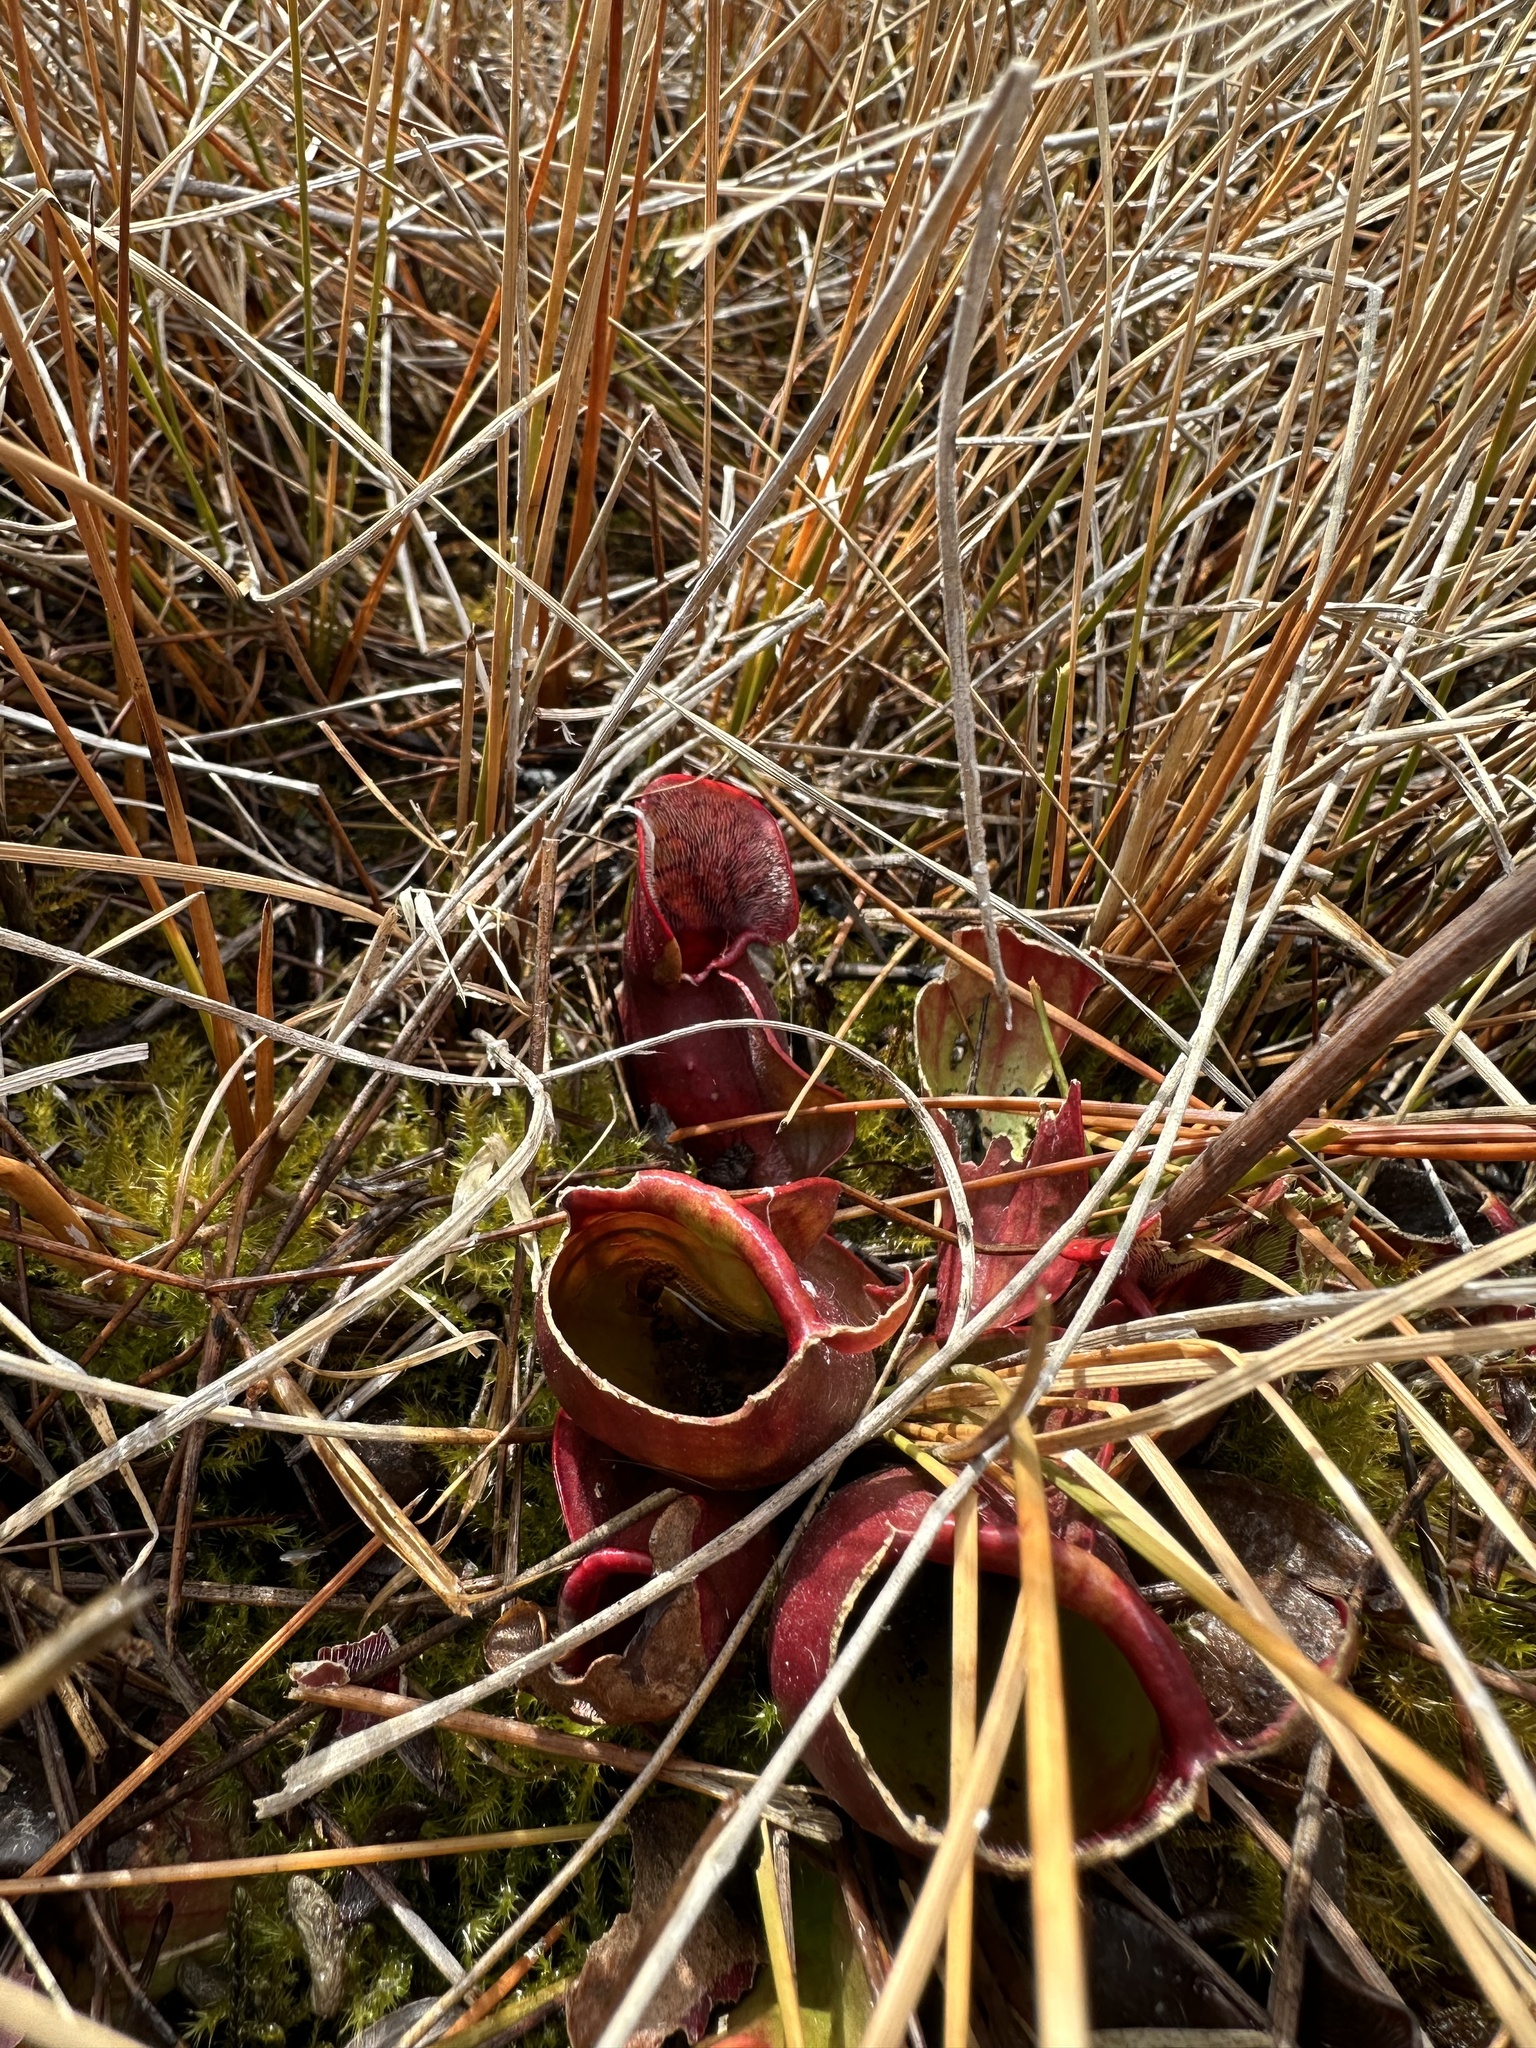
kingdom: Plantae
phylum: Tracheophyta
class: Magnoliopsida
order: Ericales
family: Sarraceniaceae
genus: Sarracenia
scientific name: Sarracenia purpurea
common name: Pitcherplant
